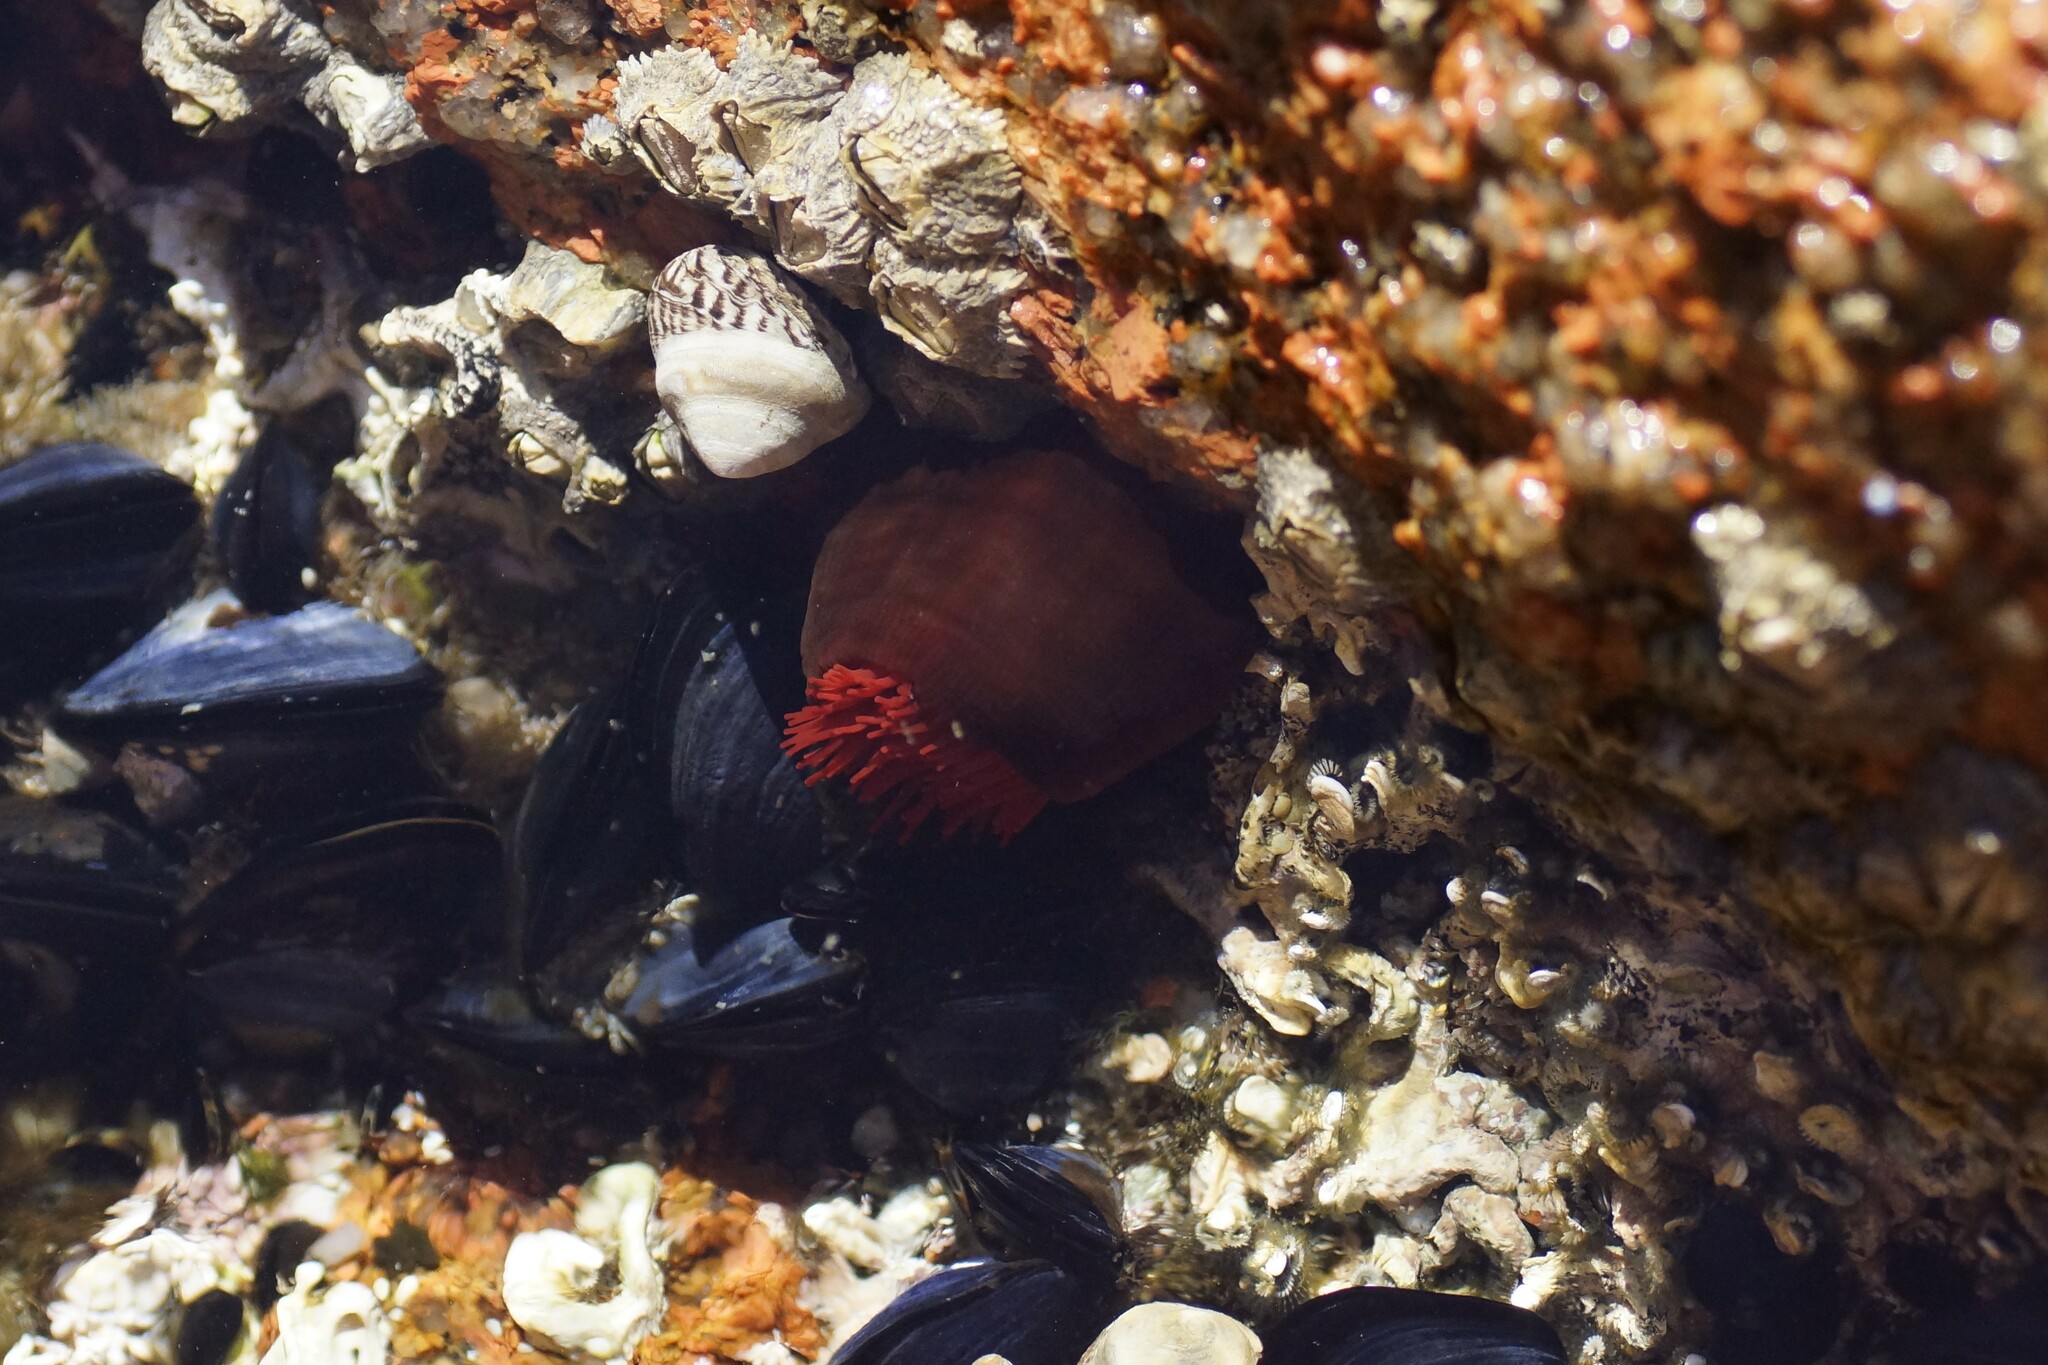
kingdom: Animalia
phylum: Cnidaria
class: Anthozoa
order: Actiniaria
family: Actiniidae
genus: Actinia
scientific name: Actinia tenebrosa
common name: Waratah anemone
